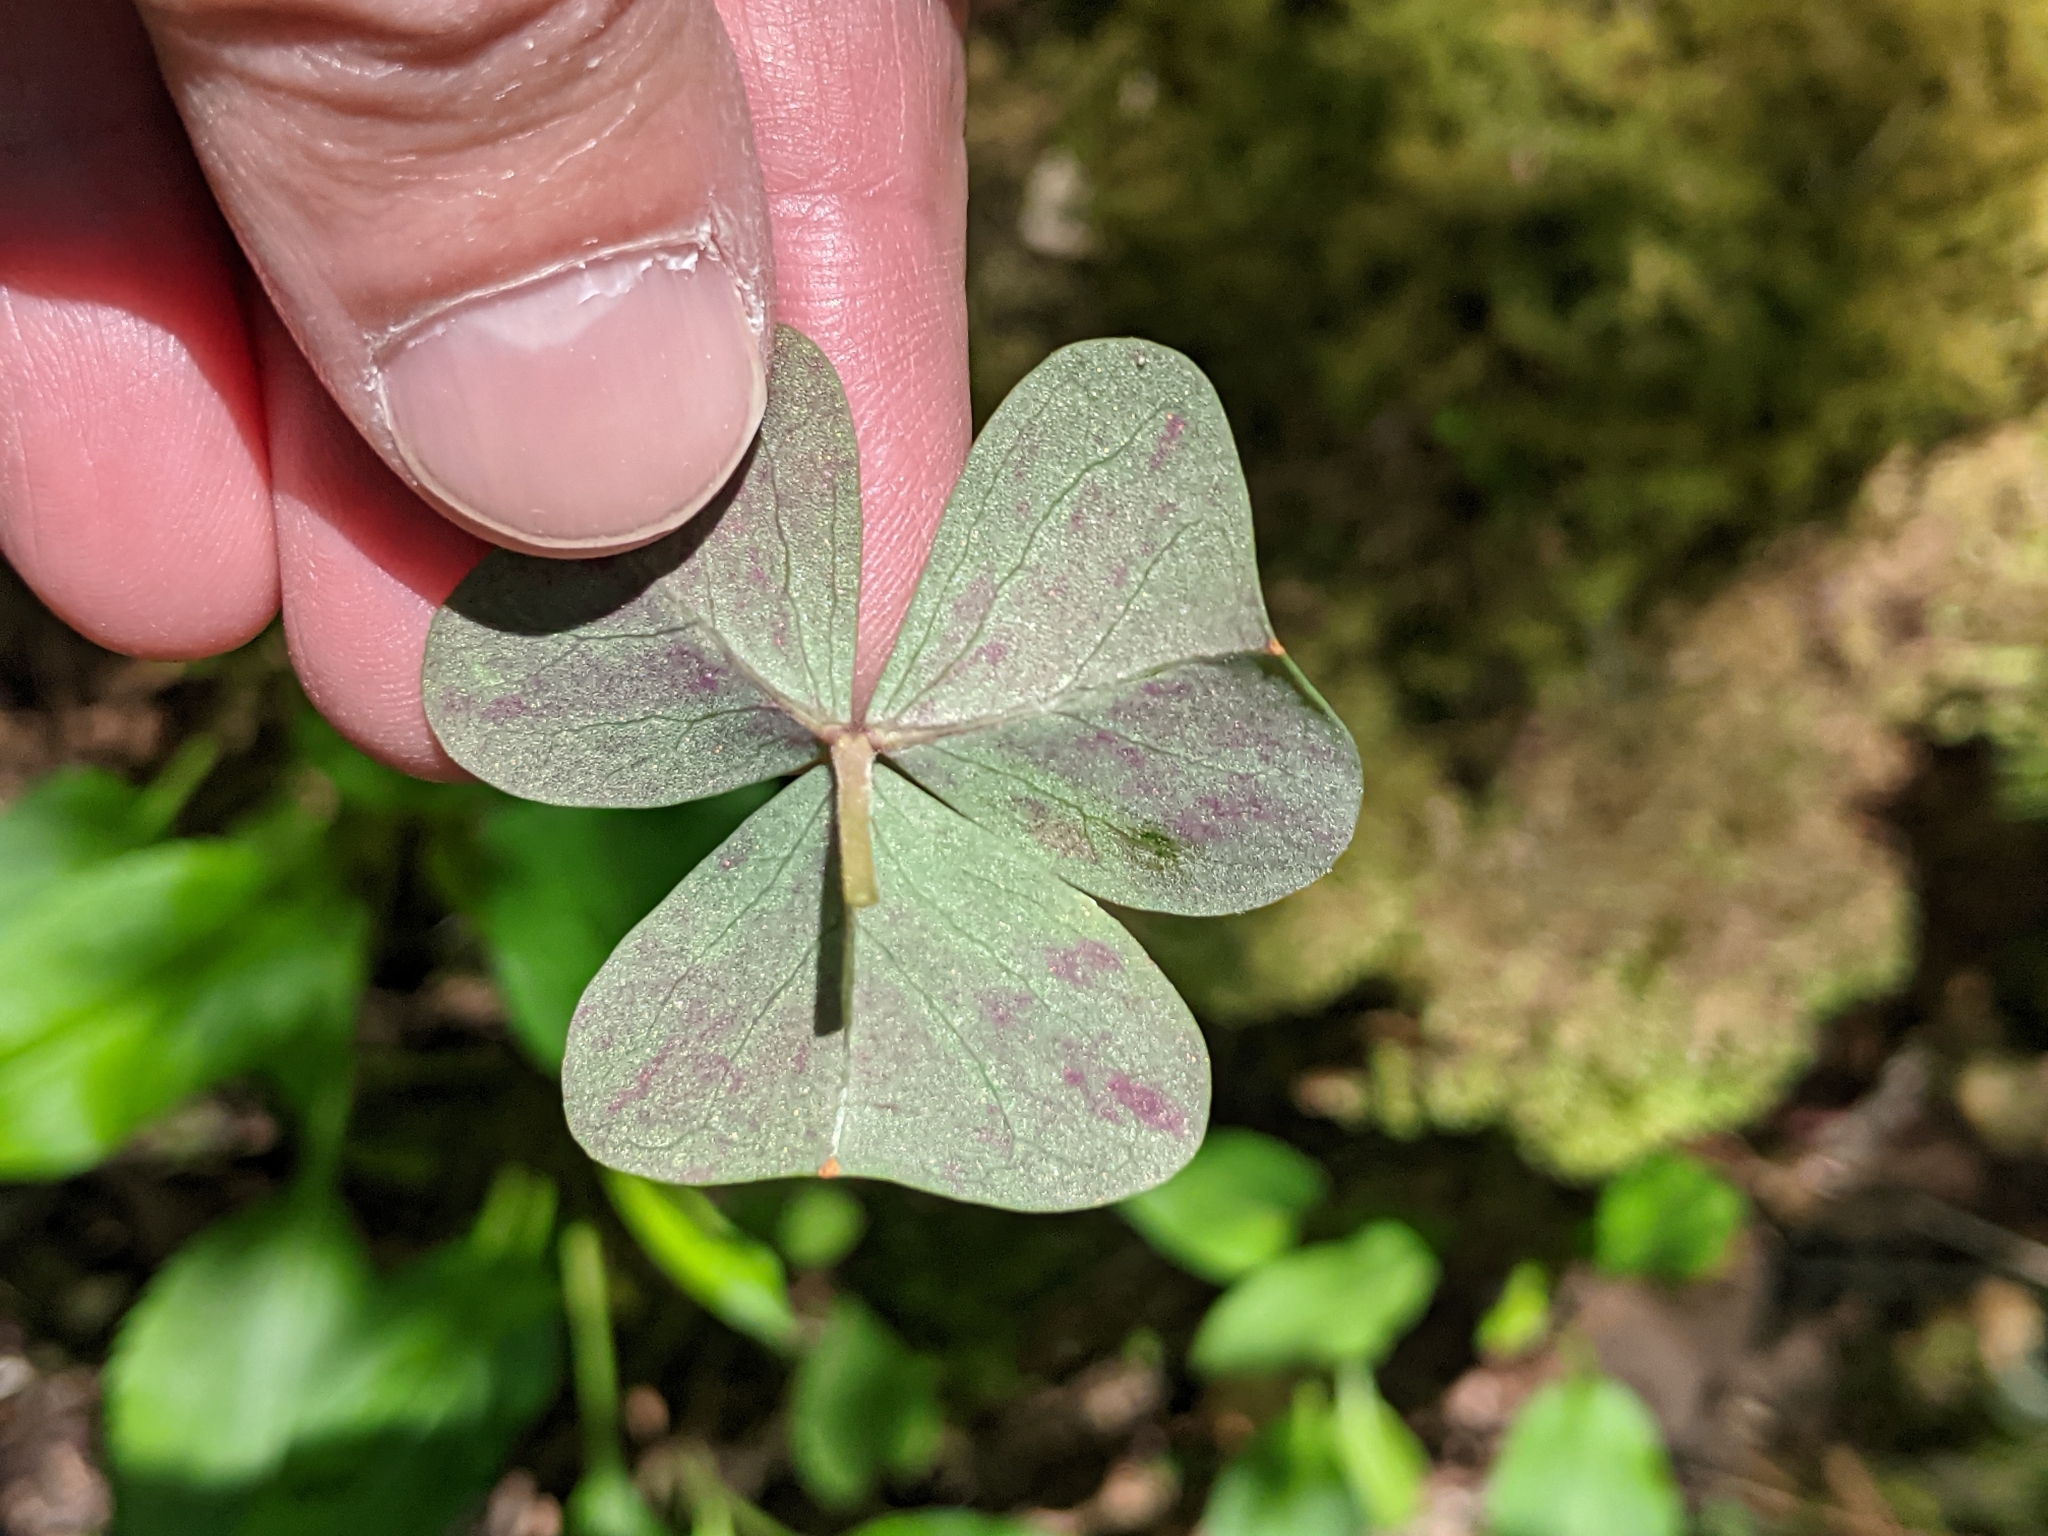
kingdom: Plantae
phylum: Tracheophyta
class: Magnoliopsida
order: Oxalidales
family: Oxalidaceae
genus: Oxalis
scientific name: Oxalis violacea
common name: Violet wood-sorrel
